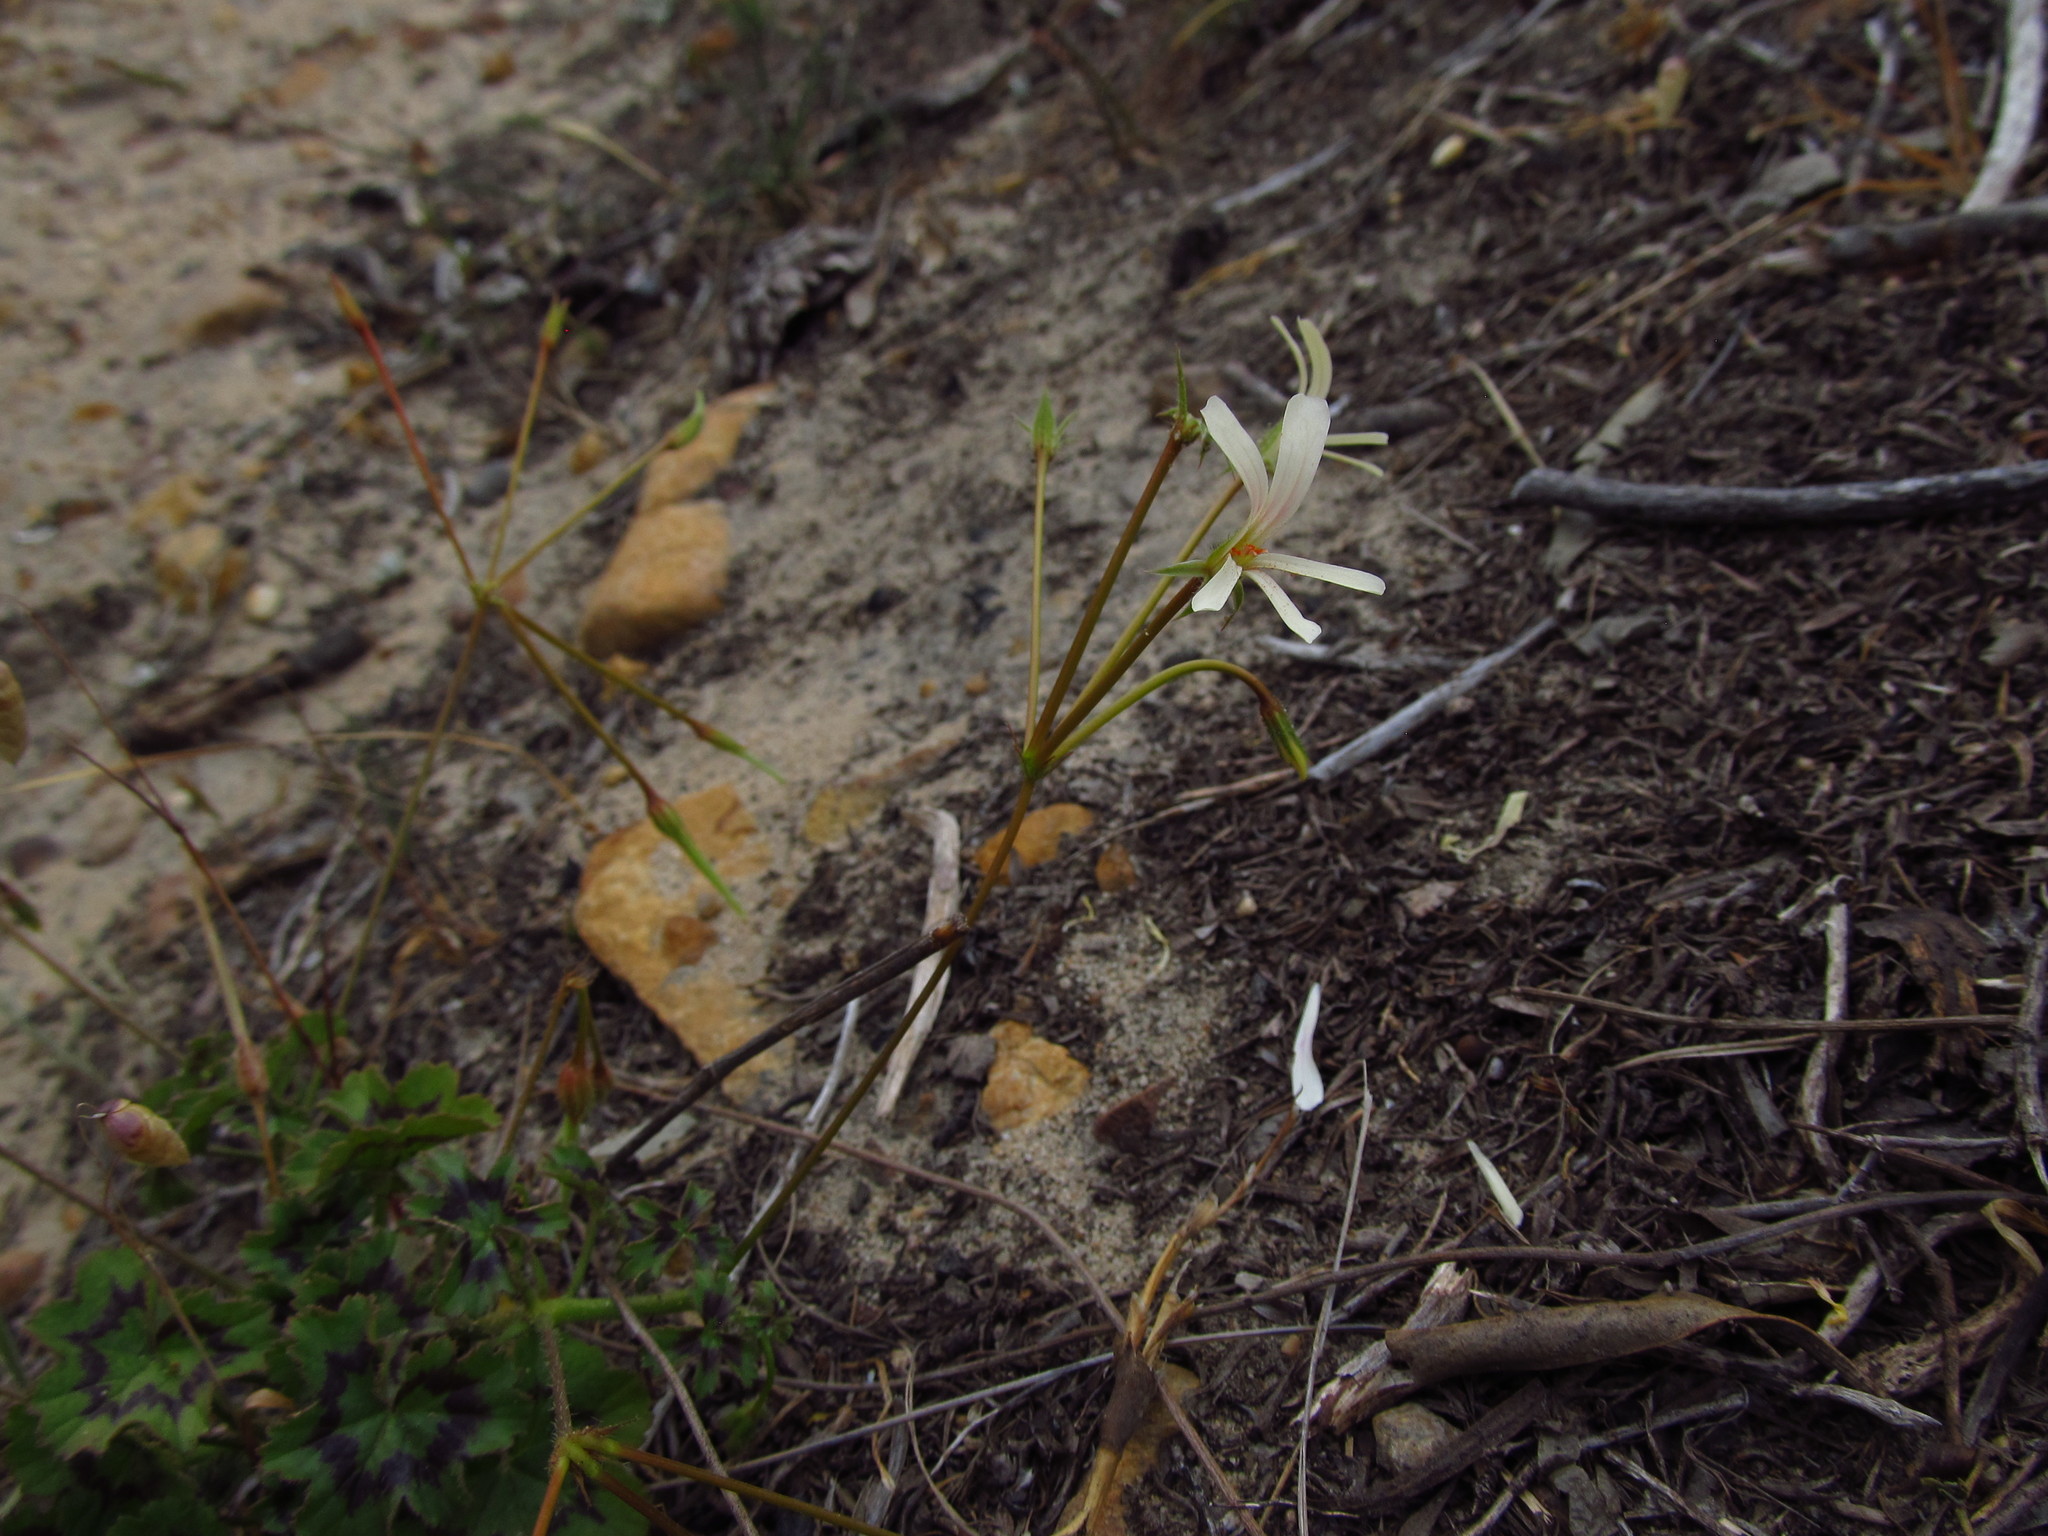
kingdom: Plantae
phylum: Tracheophyta
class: Magnoliopsida
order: Geraniales
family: Geraniaceae
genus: Pelargonium
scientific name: Pelargonium elongatum
